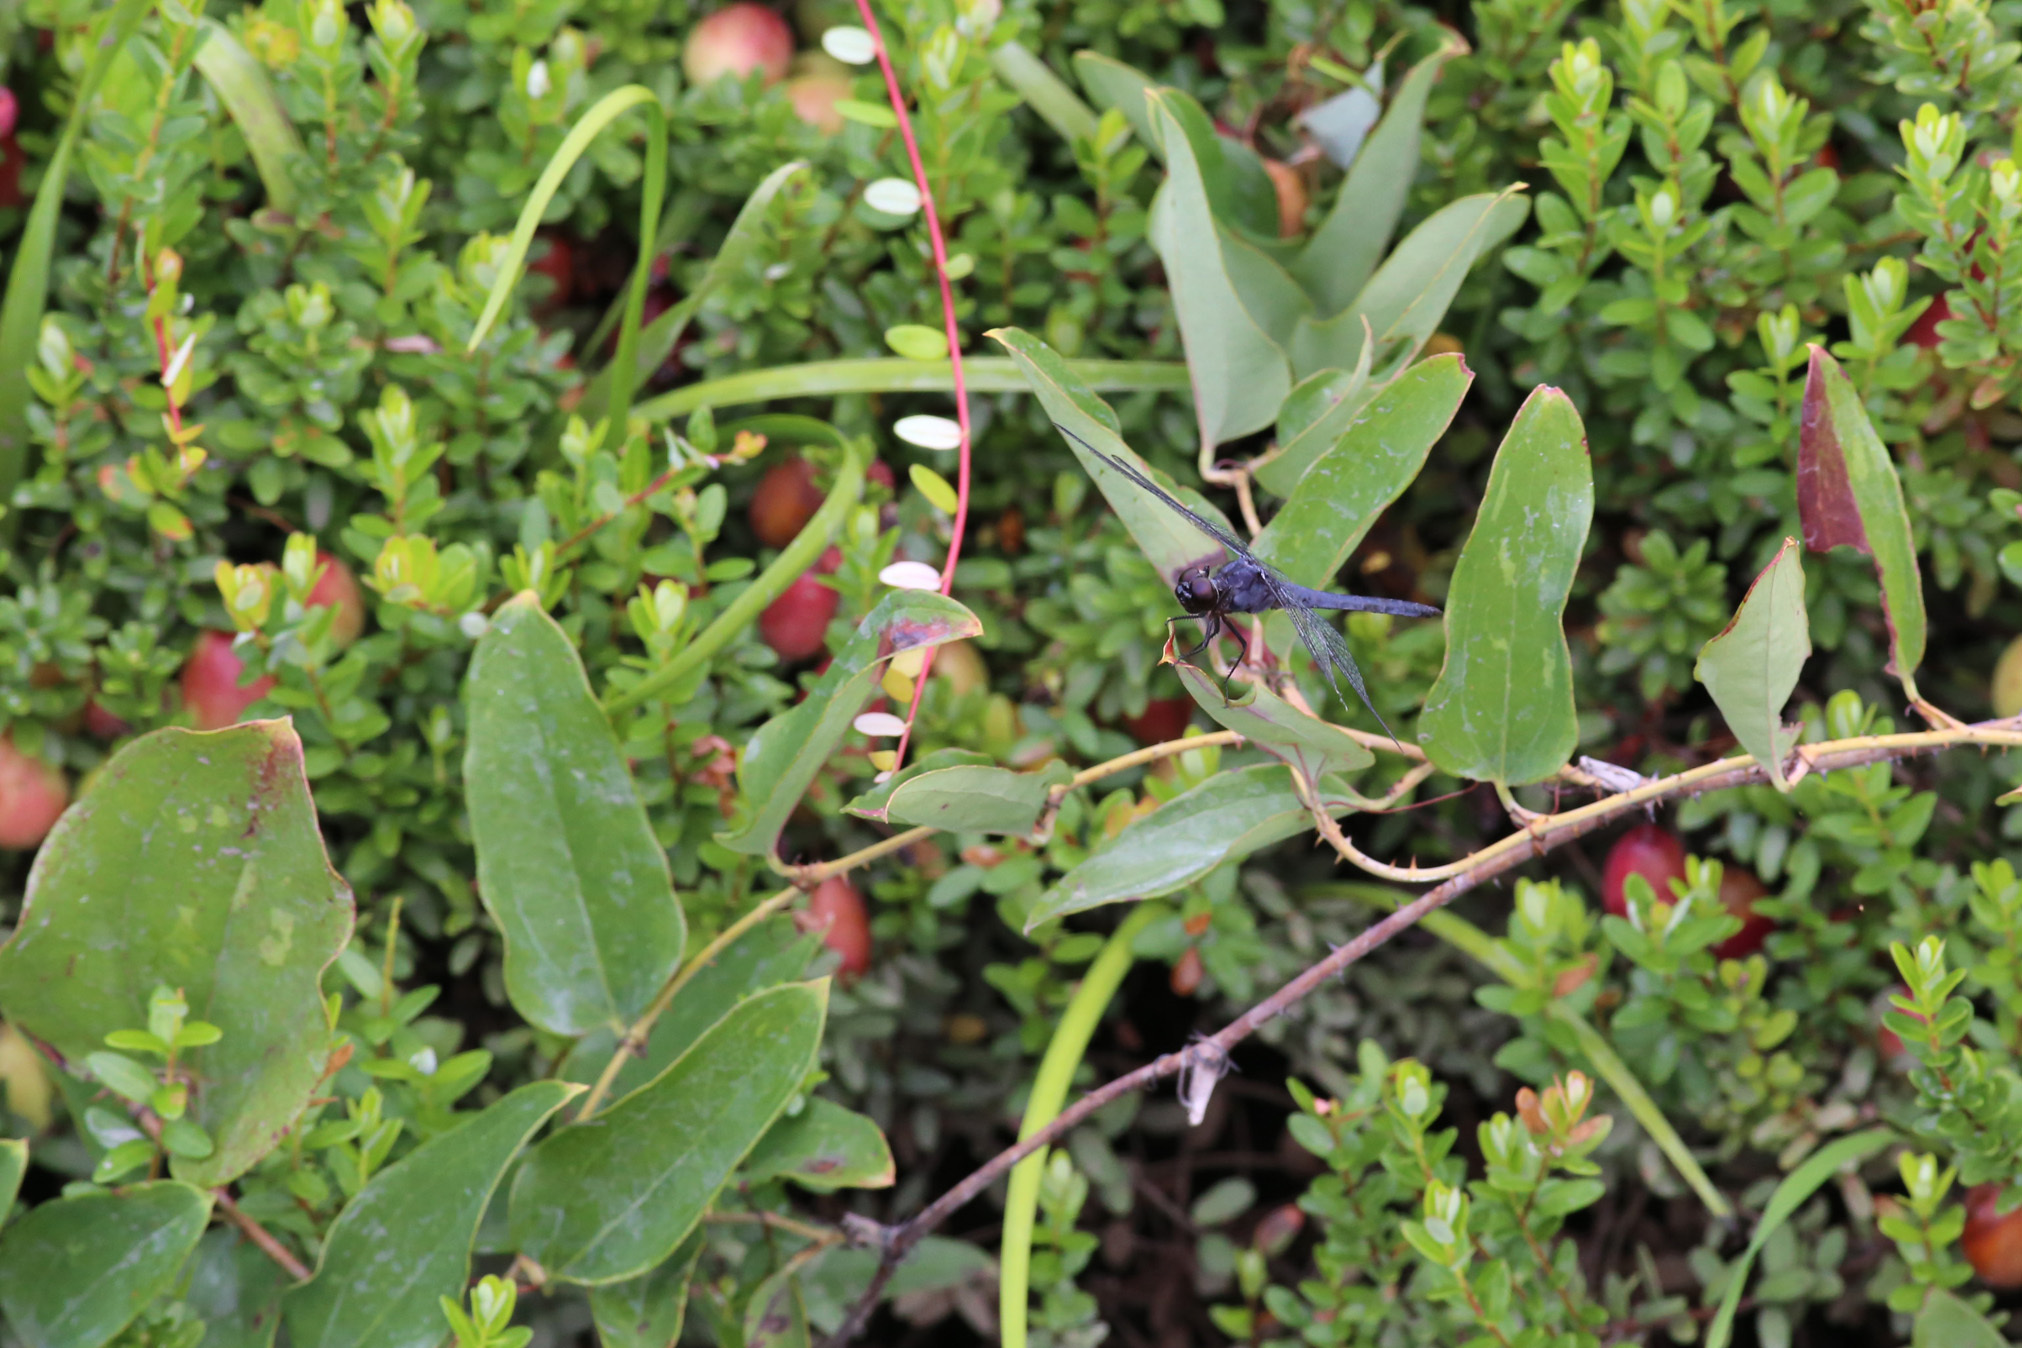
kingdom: Plantae
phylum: Tracheophyta
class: Liliopsida
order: Liliales
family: Smilacaceae
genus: Smilax
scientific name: Smilax glauca
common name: Cat greenbrier
